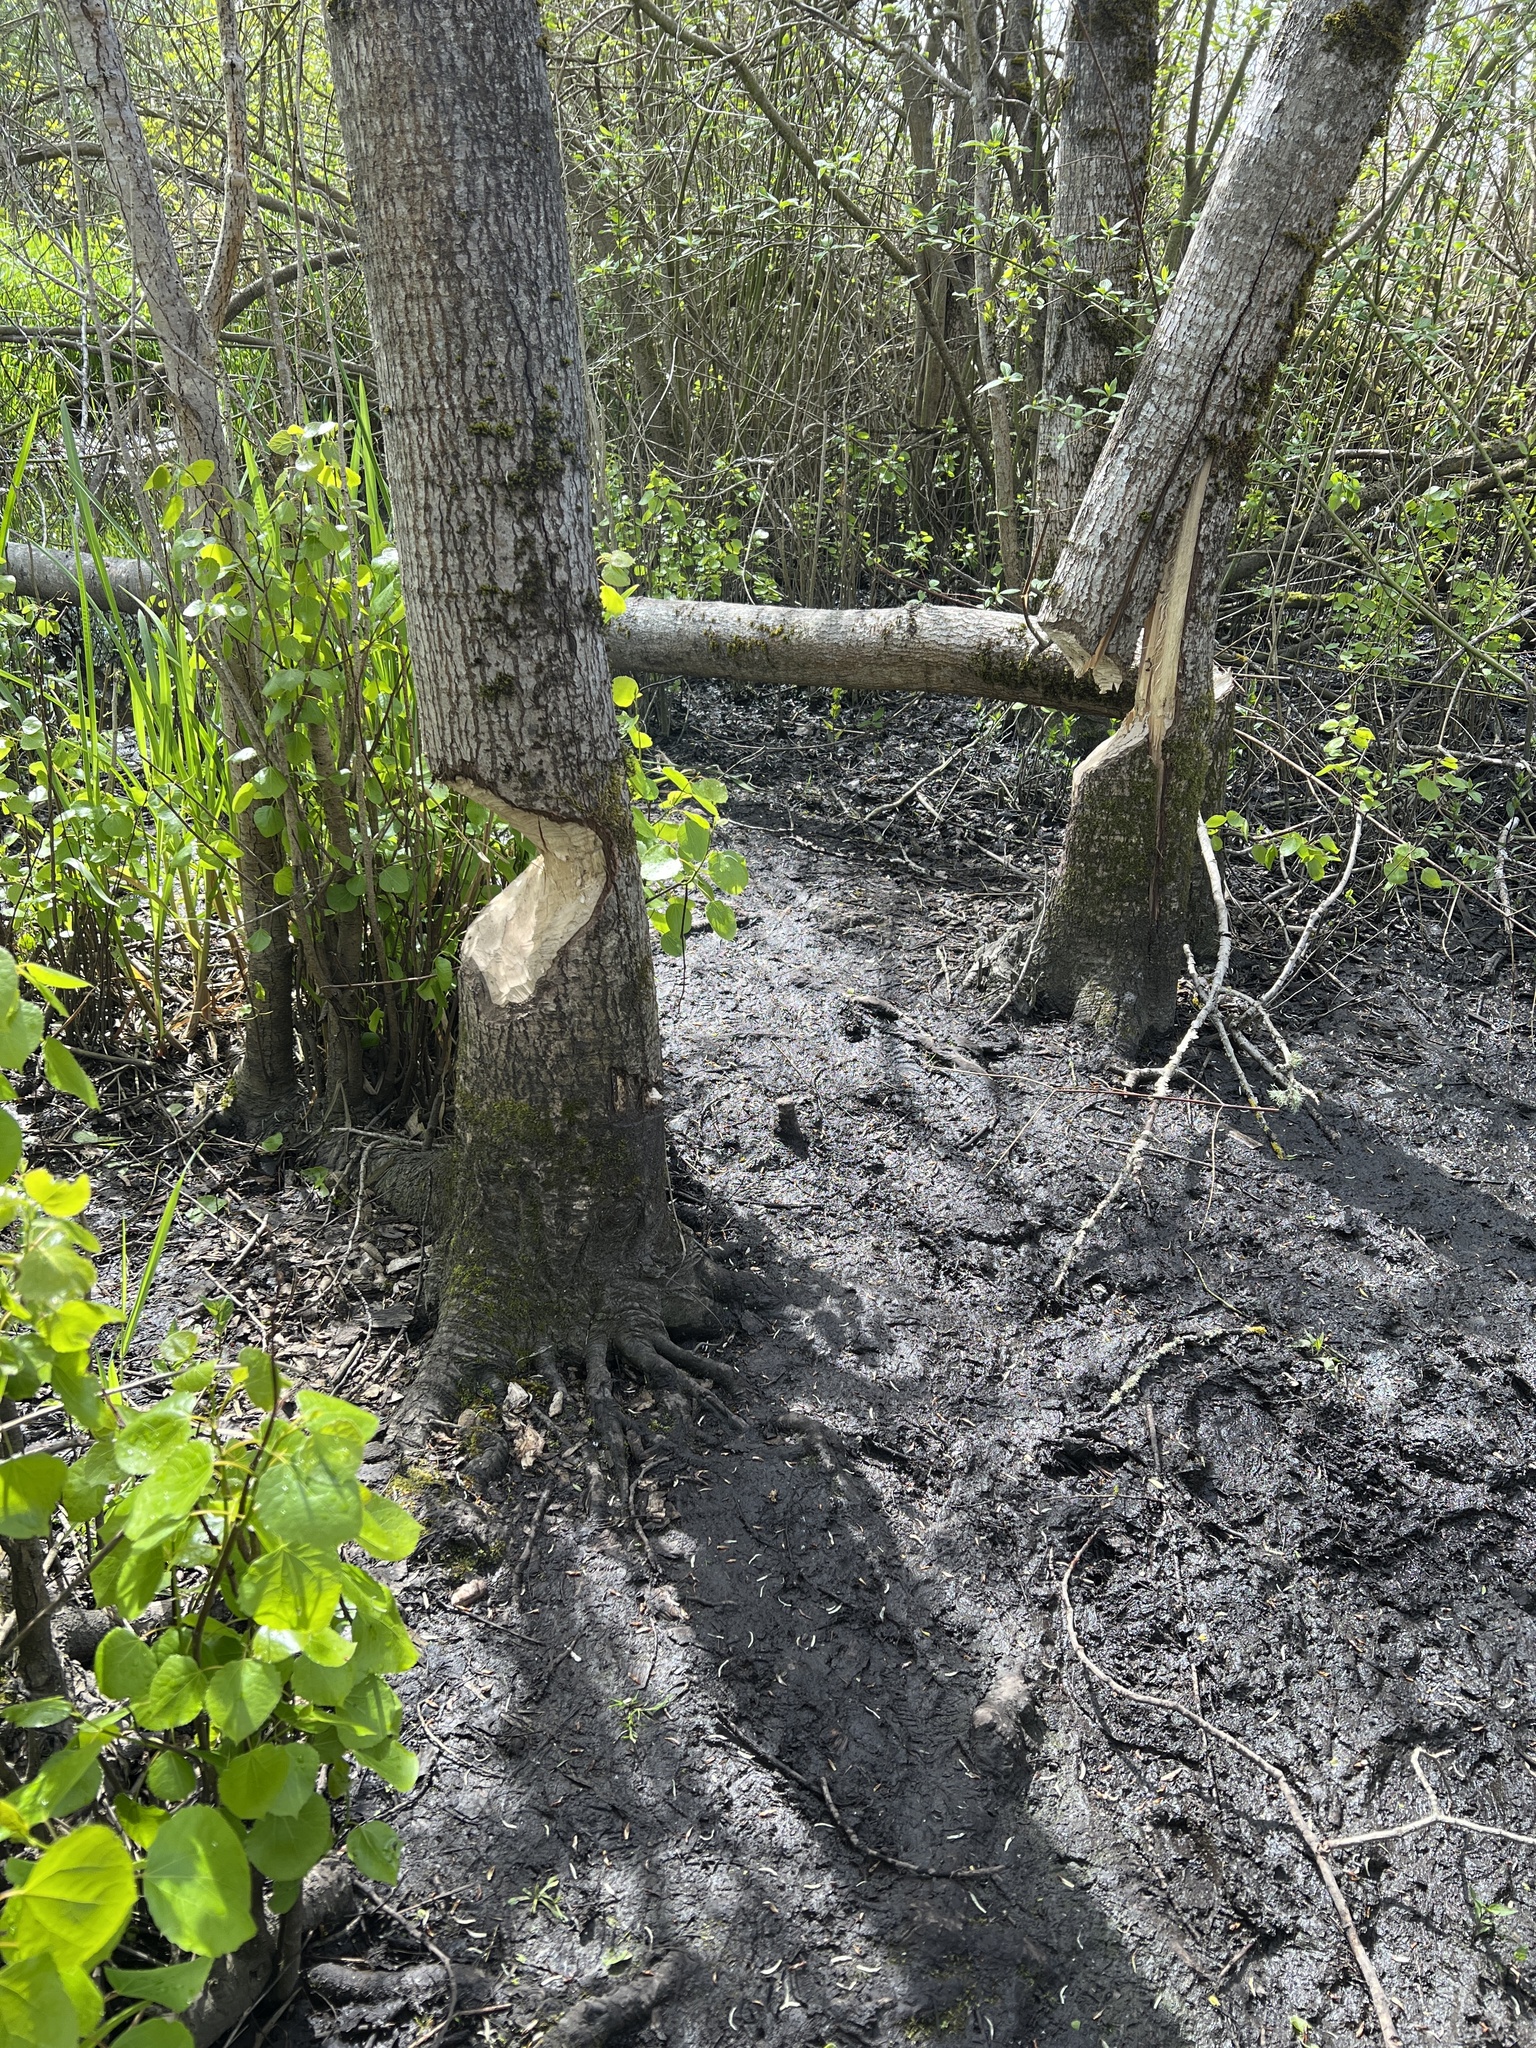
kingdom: Animalia
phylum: Chordata
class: Mammalia
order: Rodentia
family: Castoridae
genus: Castor
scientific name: Castor canadensis
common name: American beaver
